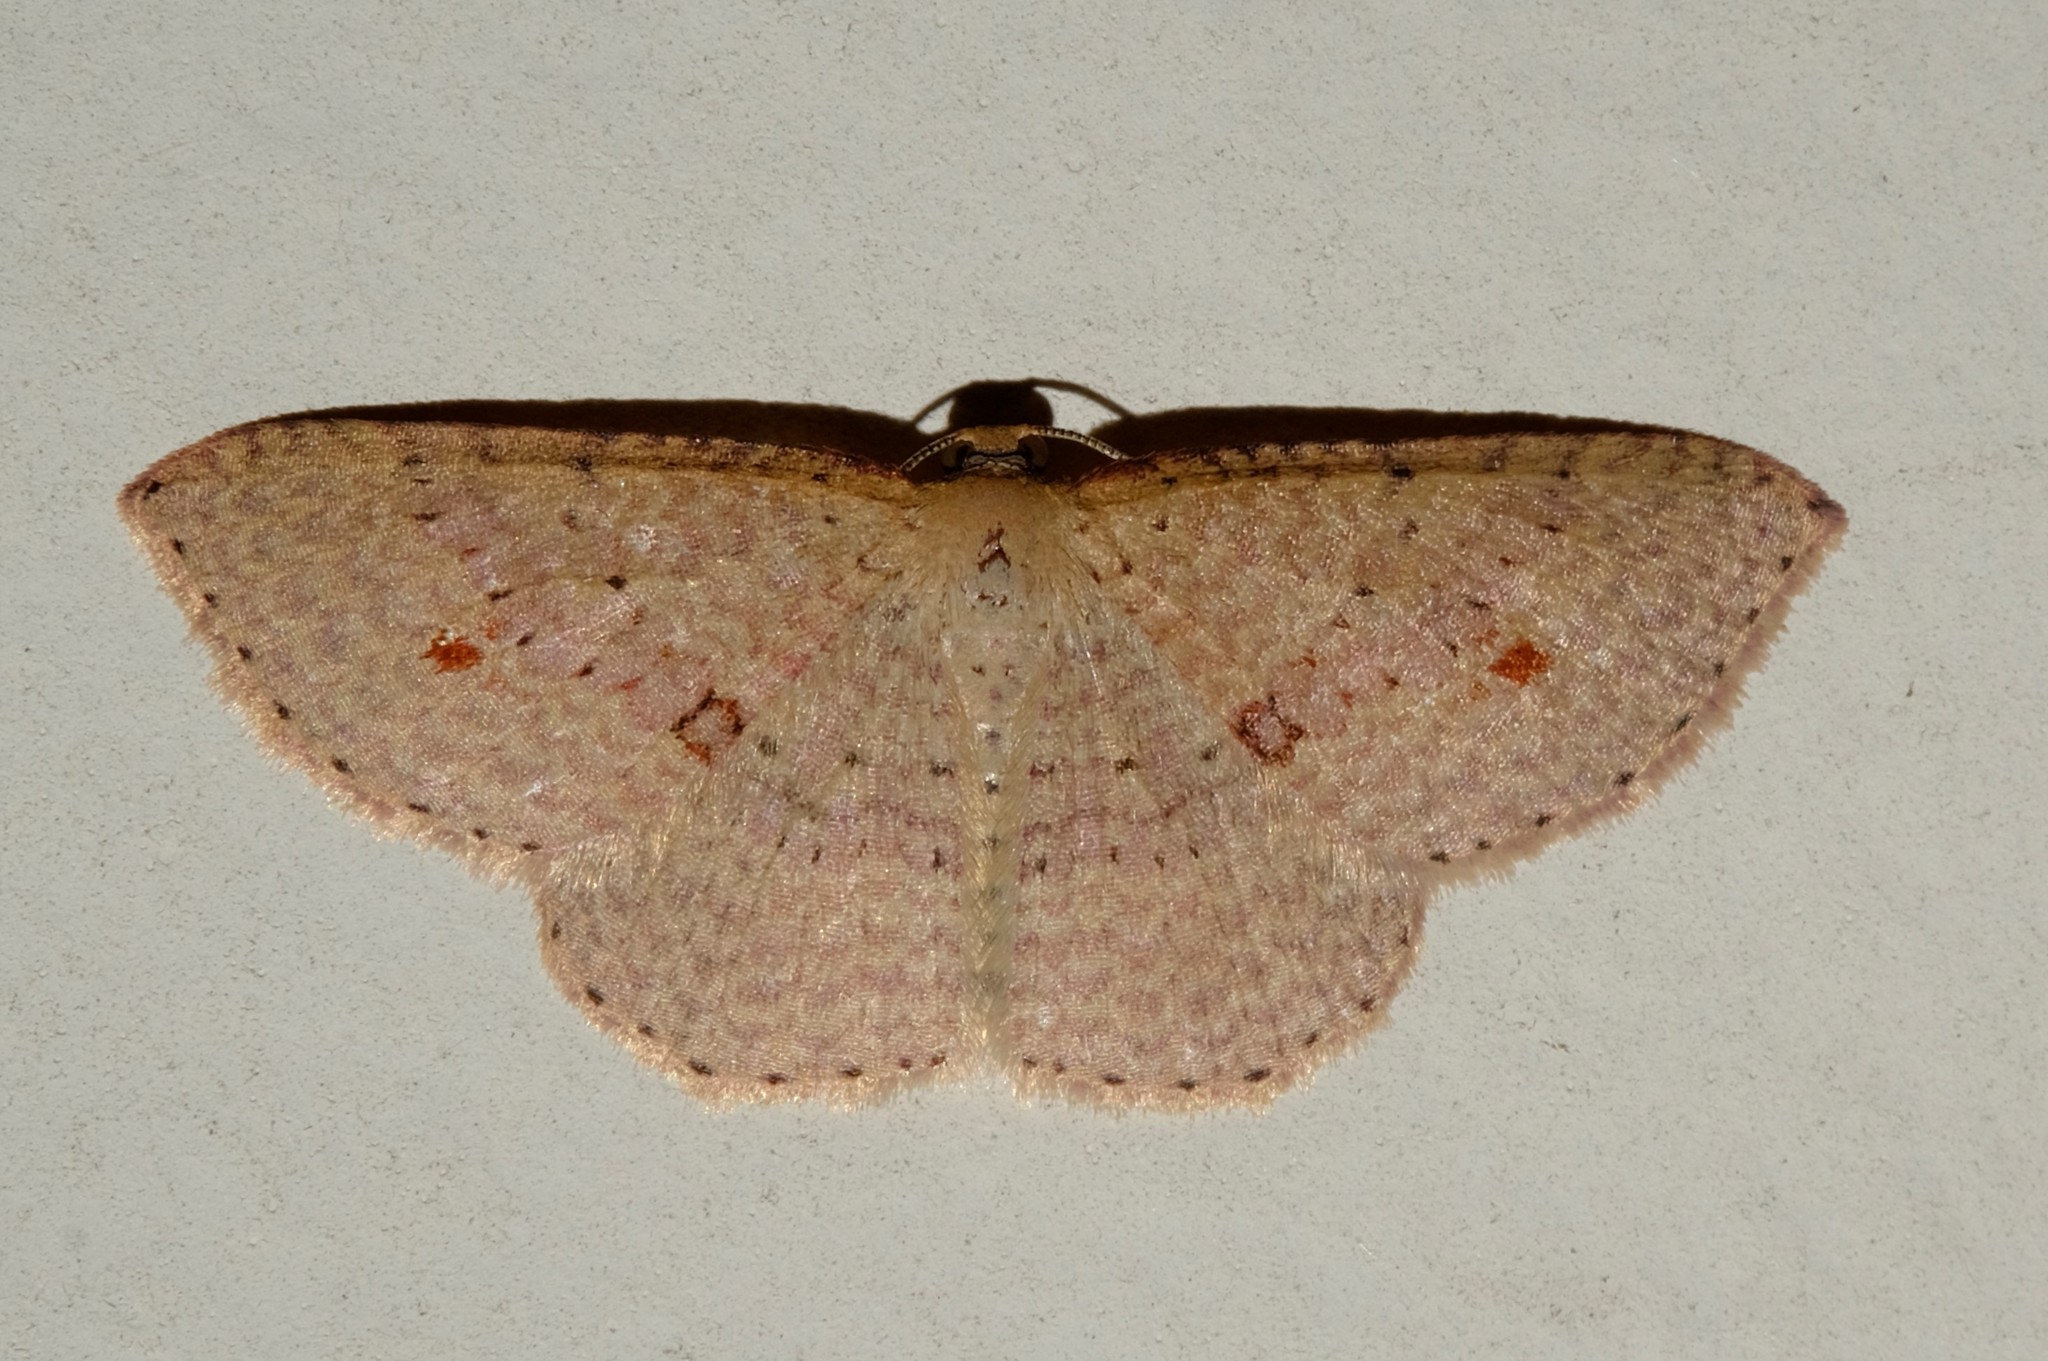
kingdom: Animalia
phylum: Arthropoda
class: Insecta
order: Lepidoptera
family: Geometridae
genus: Epicyme
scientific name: Epicyme rubropunctaria
